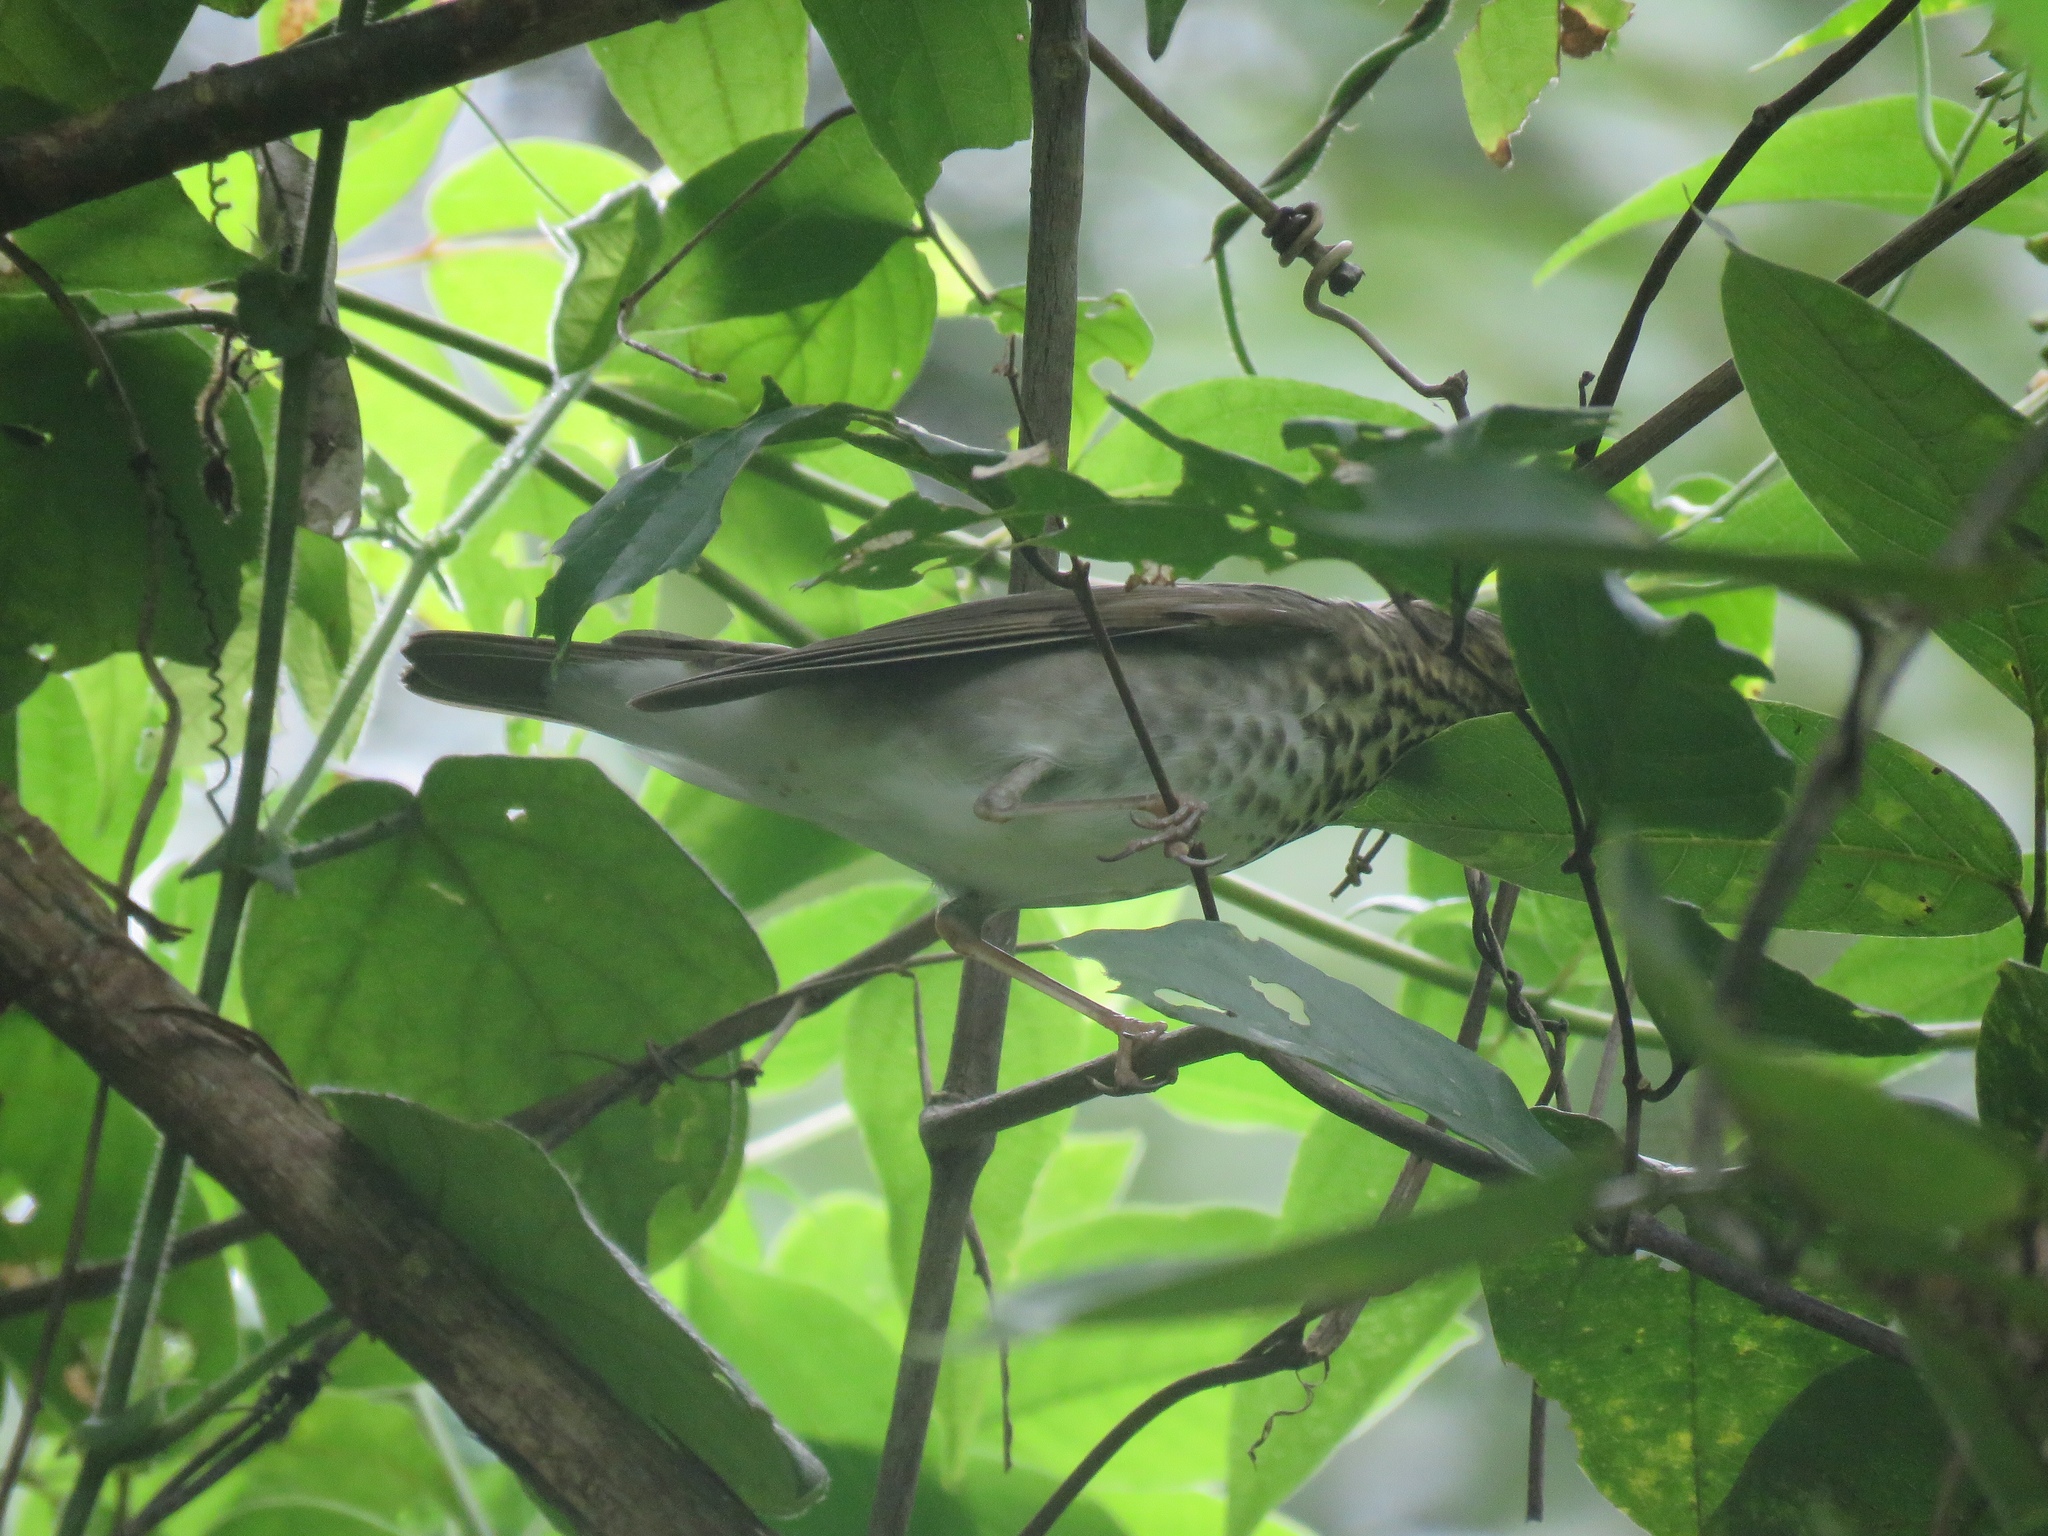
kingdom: Animalia
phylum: Chordata
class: Aves
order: Passeriformes
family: Turdidae
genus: Catharus
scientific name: Catharus ustulatus
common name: Swainson's thrush
